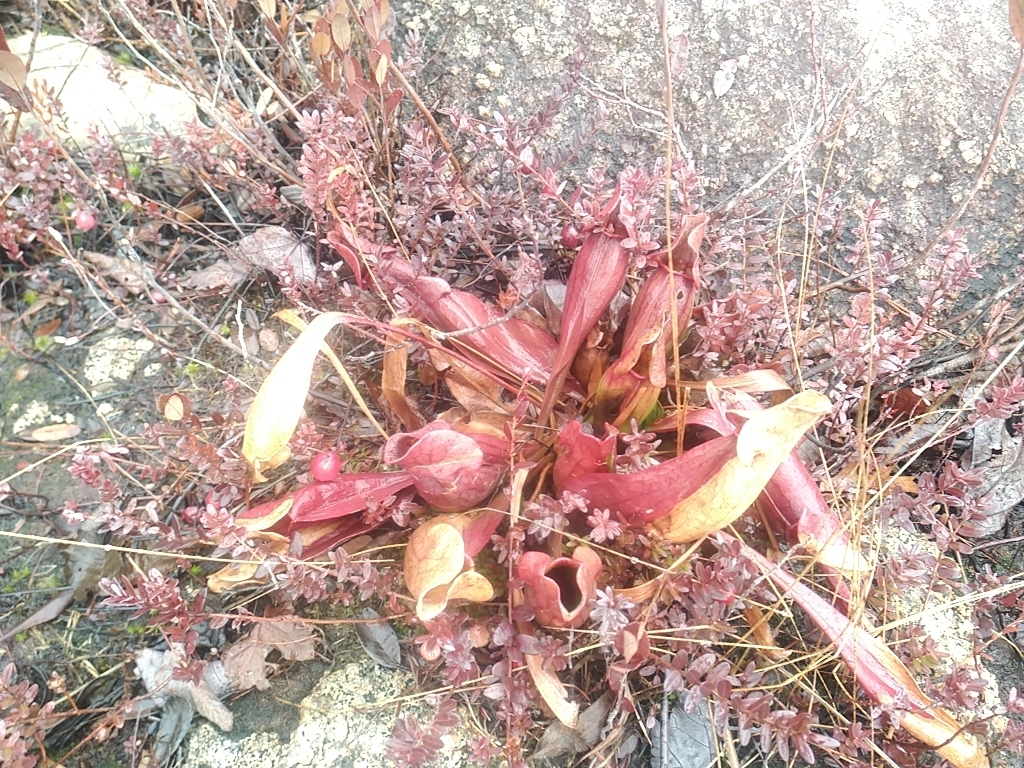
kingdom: Plantae
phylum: Tracheophyta
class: Magnoliopsida
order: Ericales
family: Sarraceniaceae
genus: Sarracenia
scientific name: Sarracenia purpurea
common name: Pitcherplant
